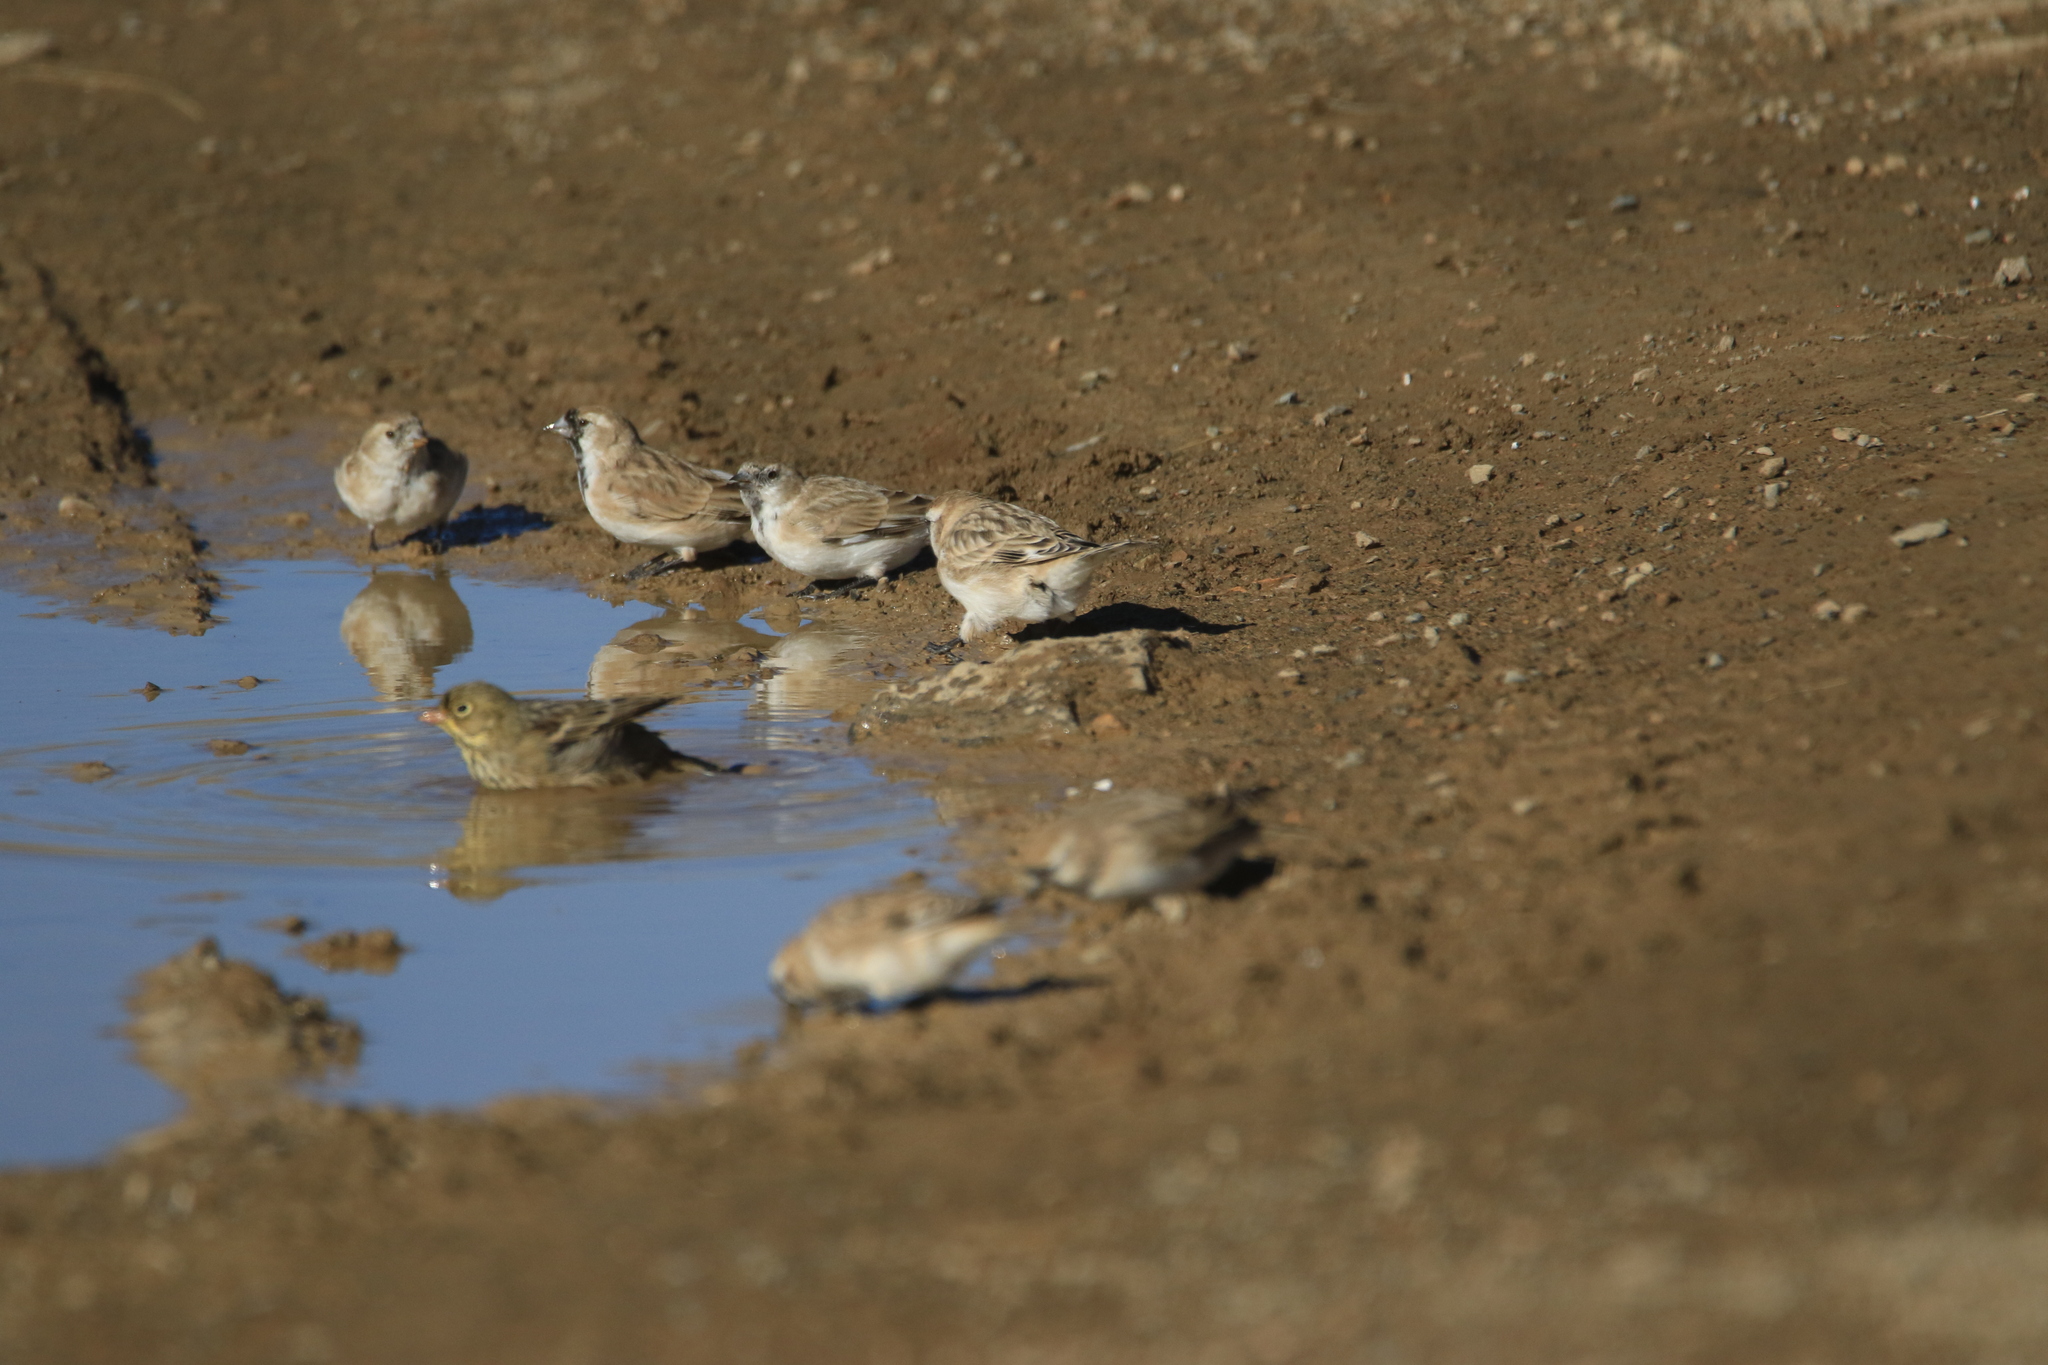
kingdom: Animalia
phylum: Chordata
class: Aves
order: Passeriformes
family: Passeridae
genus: Pyrgilauda
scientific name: Pyrgilauda davidiana
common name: Pere david's snowfinch
